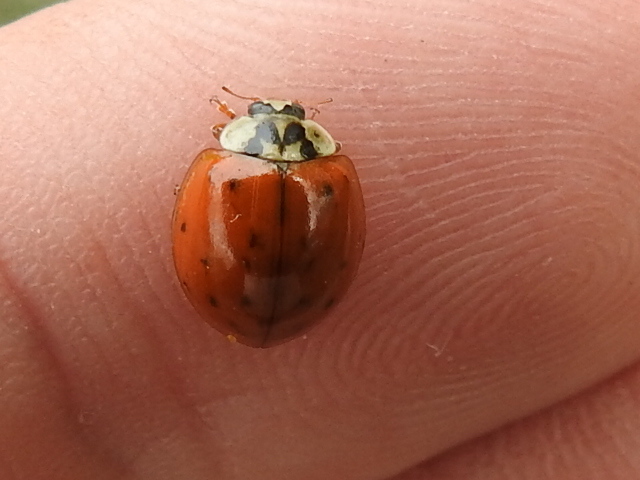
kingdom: Animalia
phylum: Arthropoda
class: Insecta
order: Coleoptera
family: Coccinellidae
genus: Harmonia
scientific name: Harmonia axyridis
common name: Harlequin ladybird
